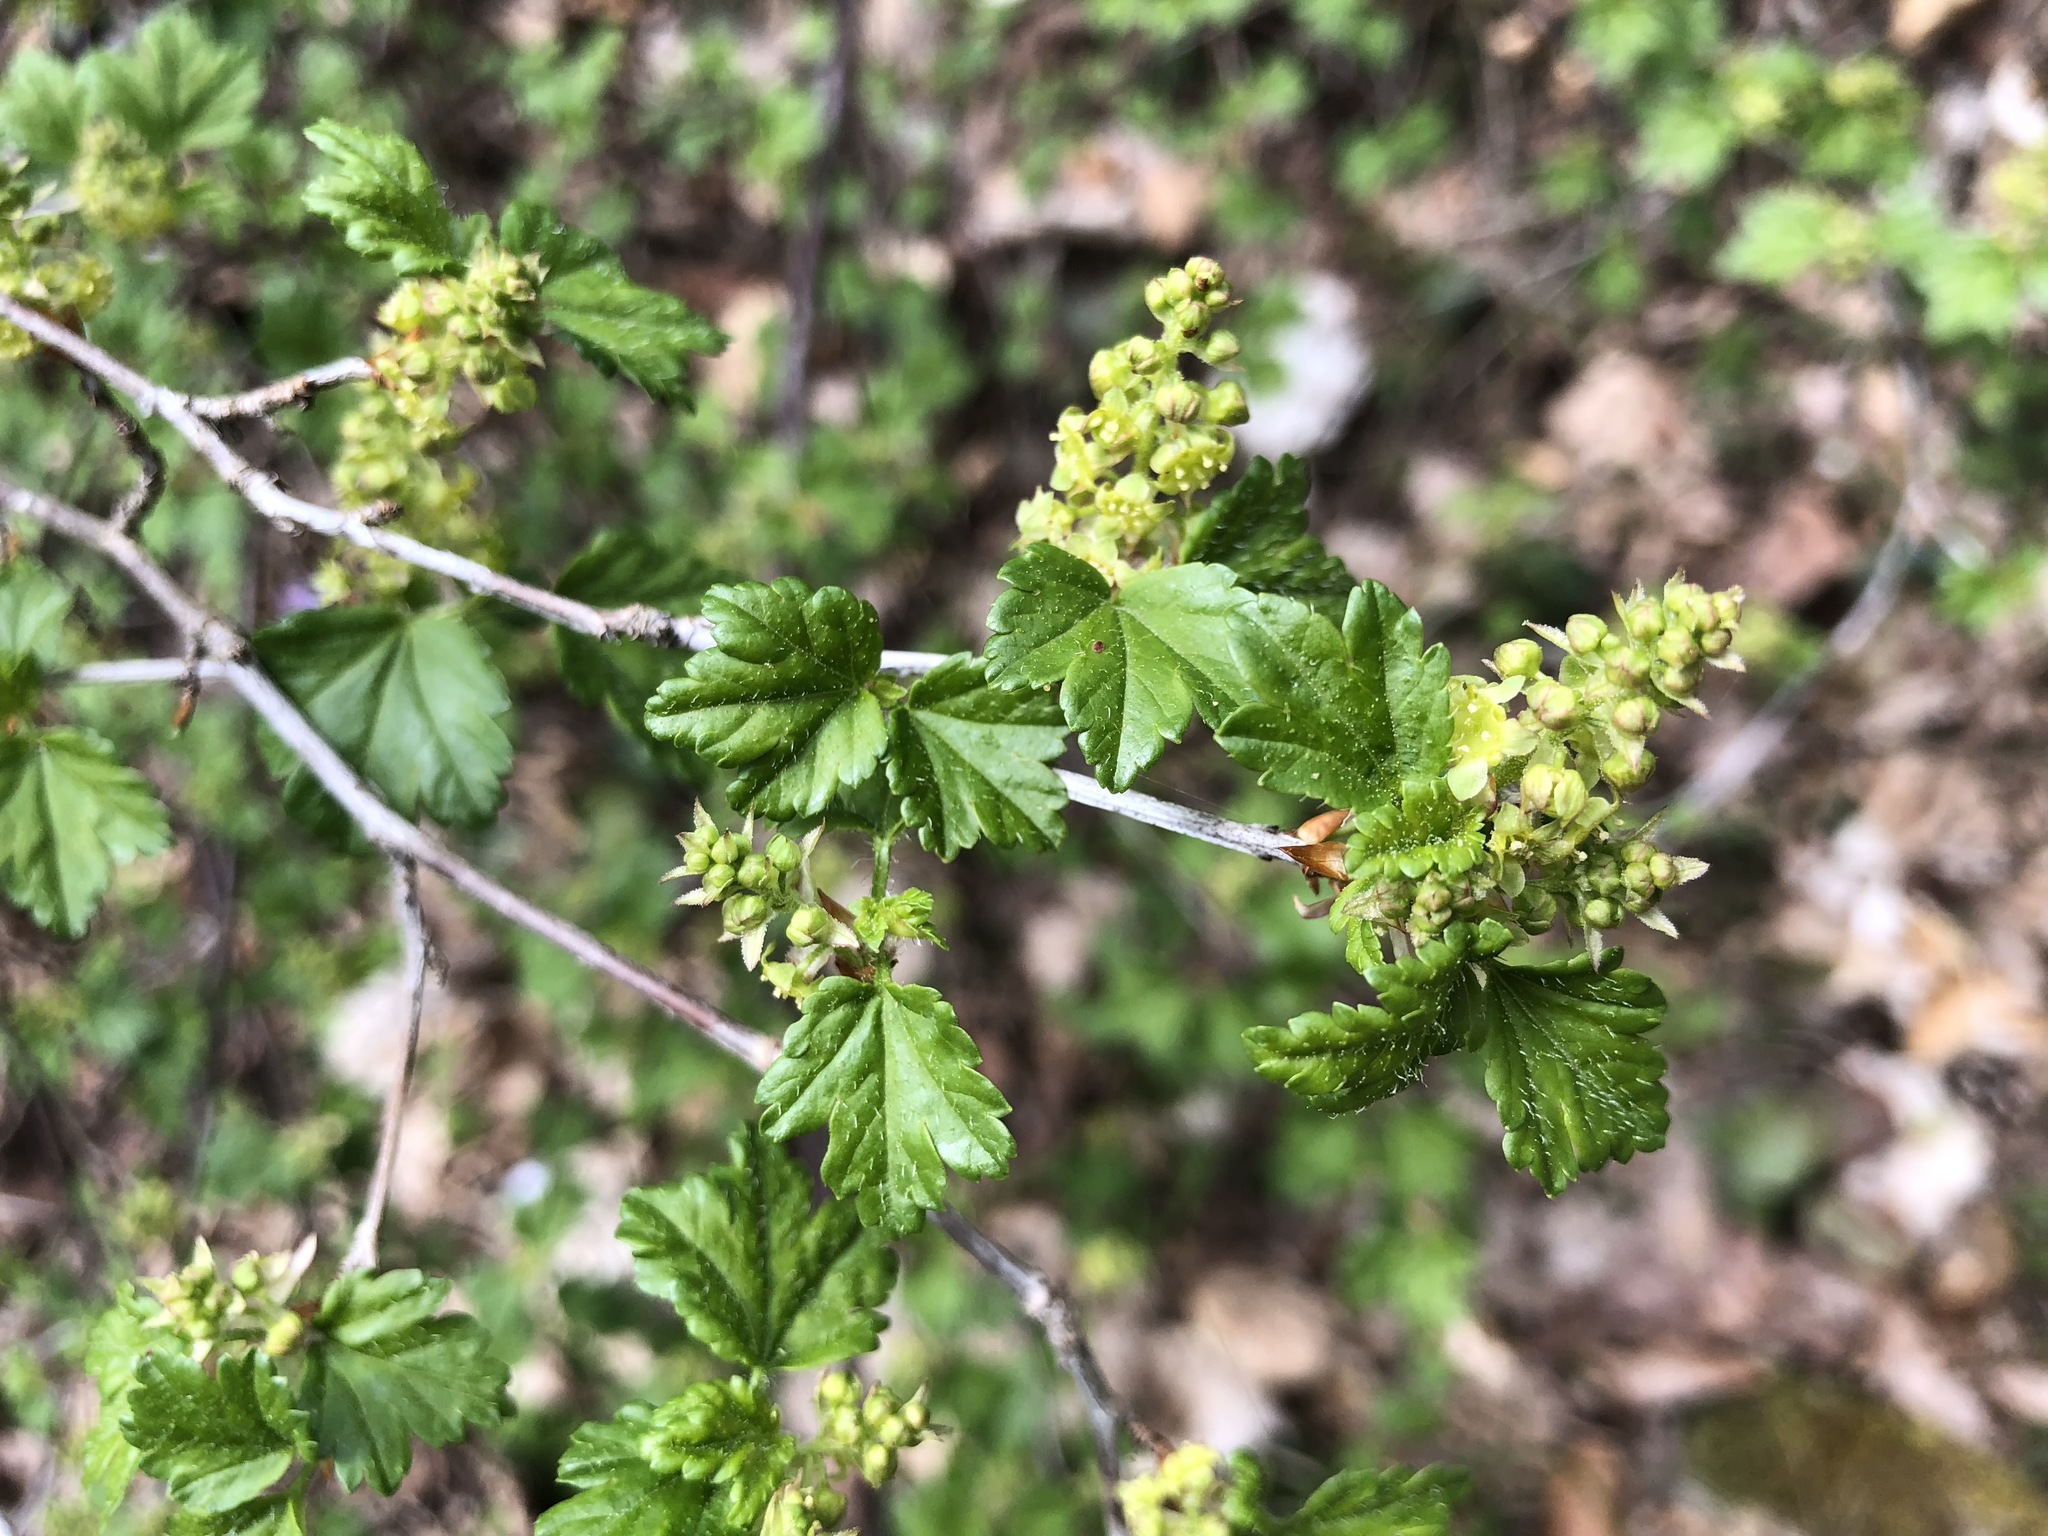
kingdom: Plantae
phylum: Tracheophyta
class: Magnoliopsida
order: Saxifragales
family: Grossulariaceae
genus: Ribes
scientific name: Ribes alpinum
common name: Alpine currant
